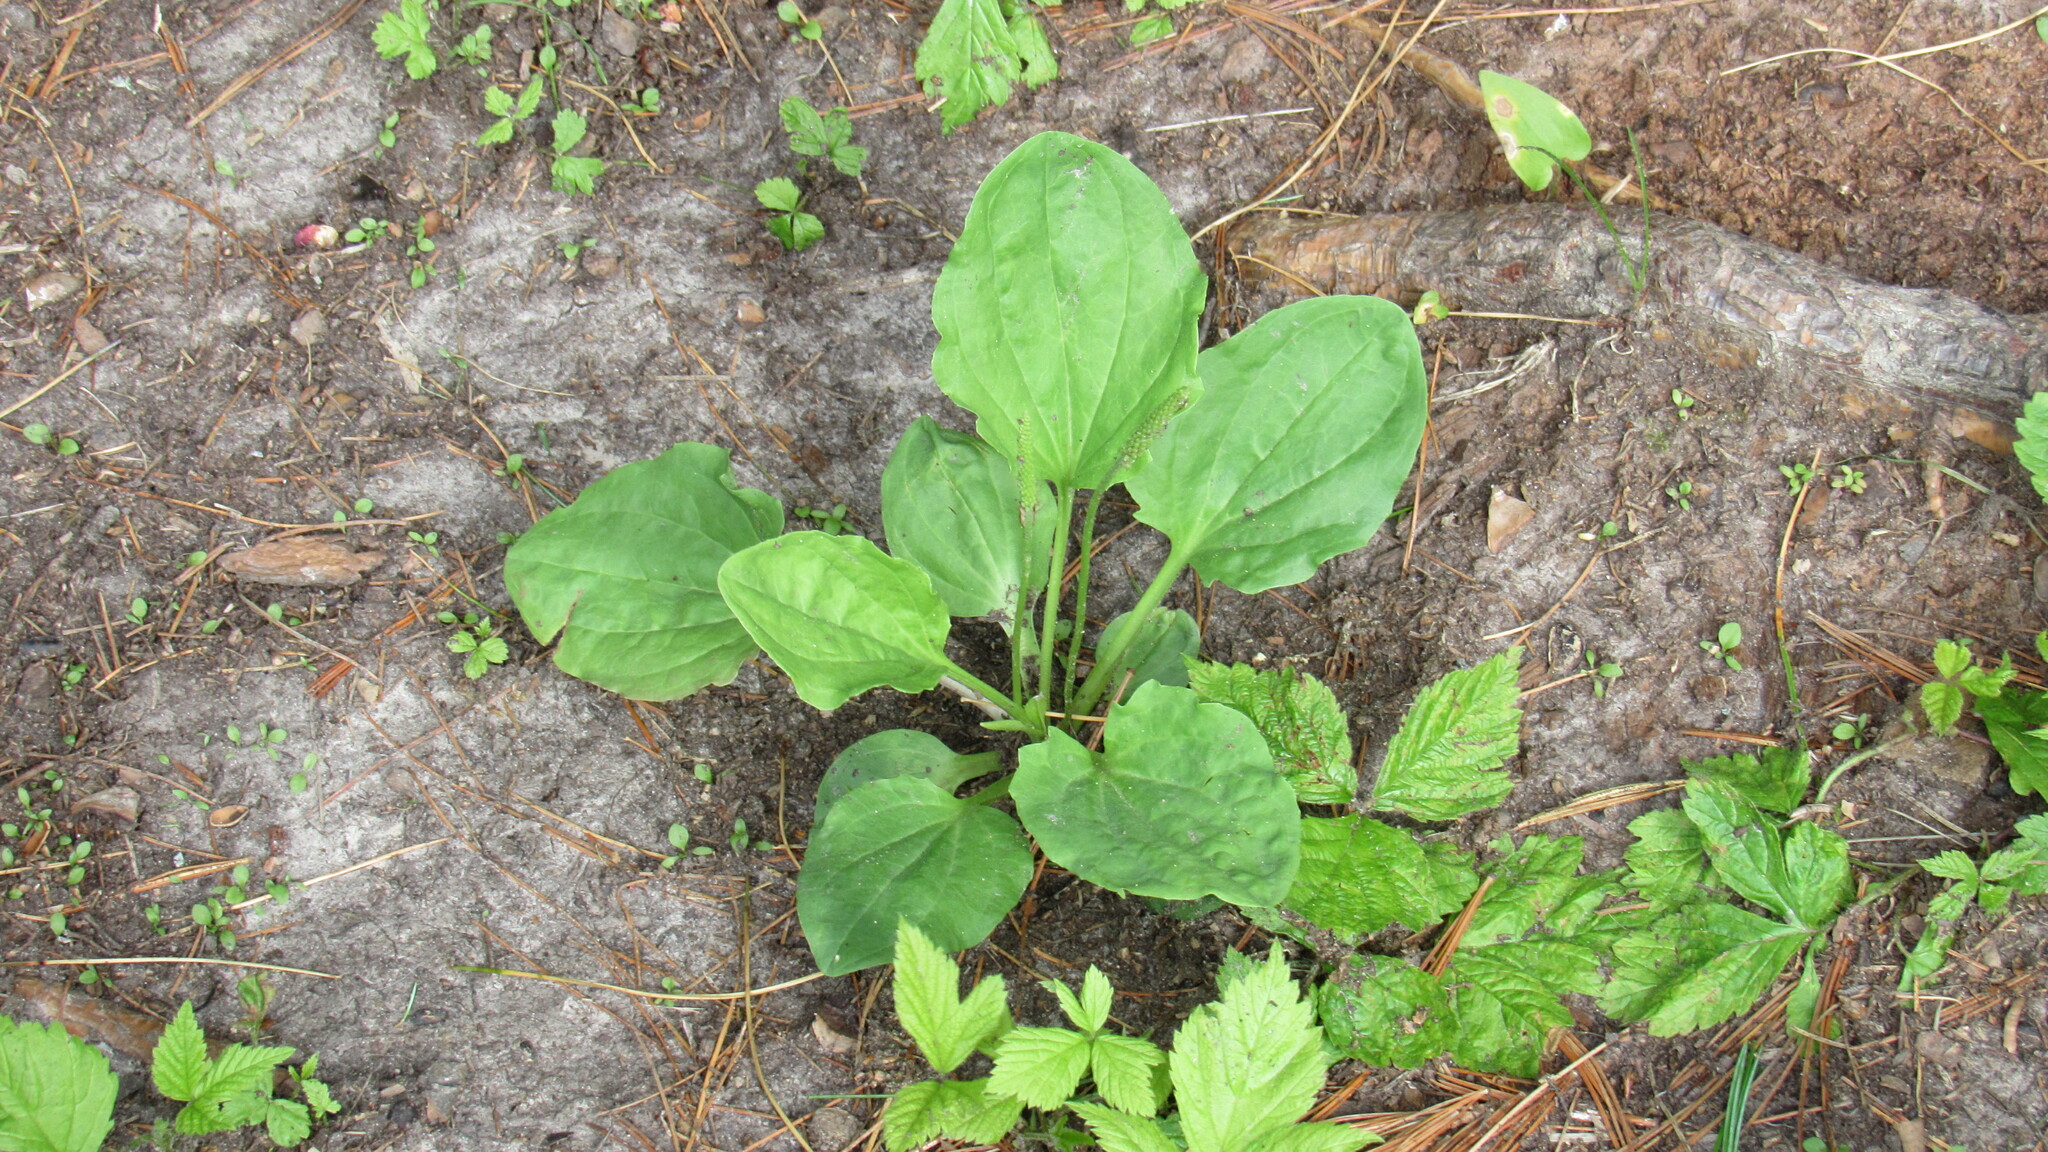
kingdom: Plantae
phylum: Tracheophyta
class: Magnoliopsida
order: Lamiales
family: Plantaginaceae
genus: Plantago
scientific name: Plantago major
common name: Common plantain
